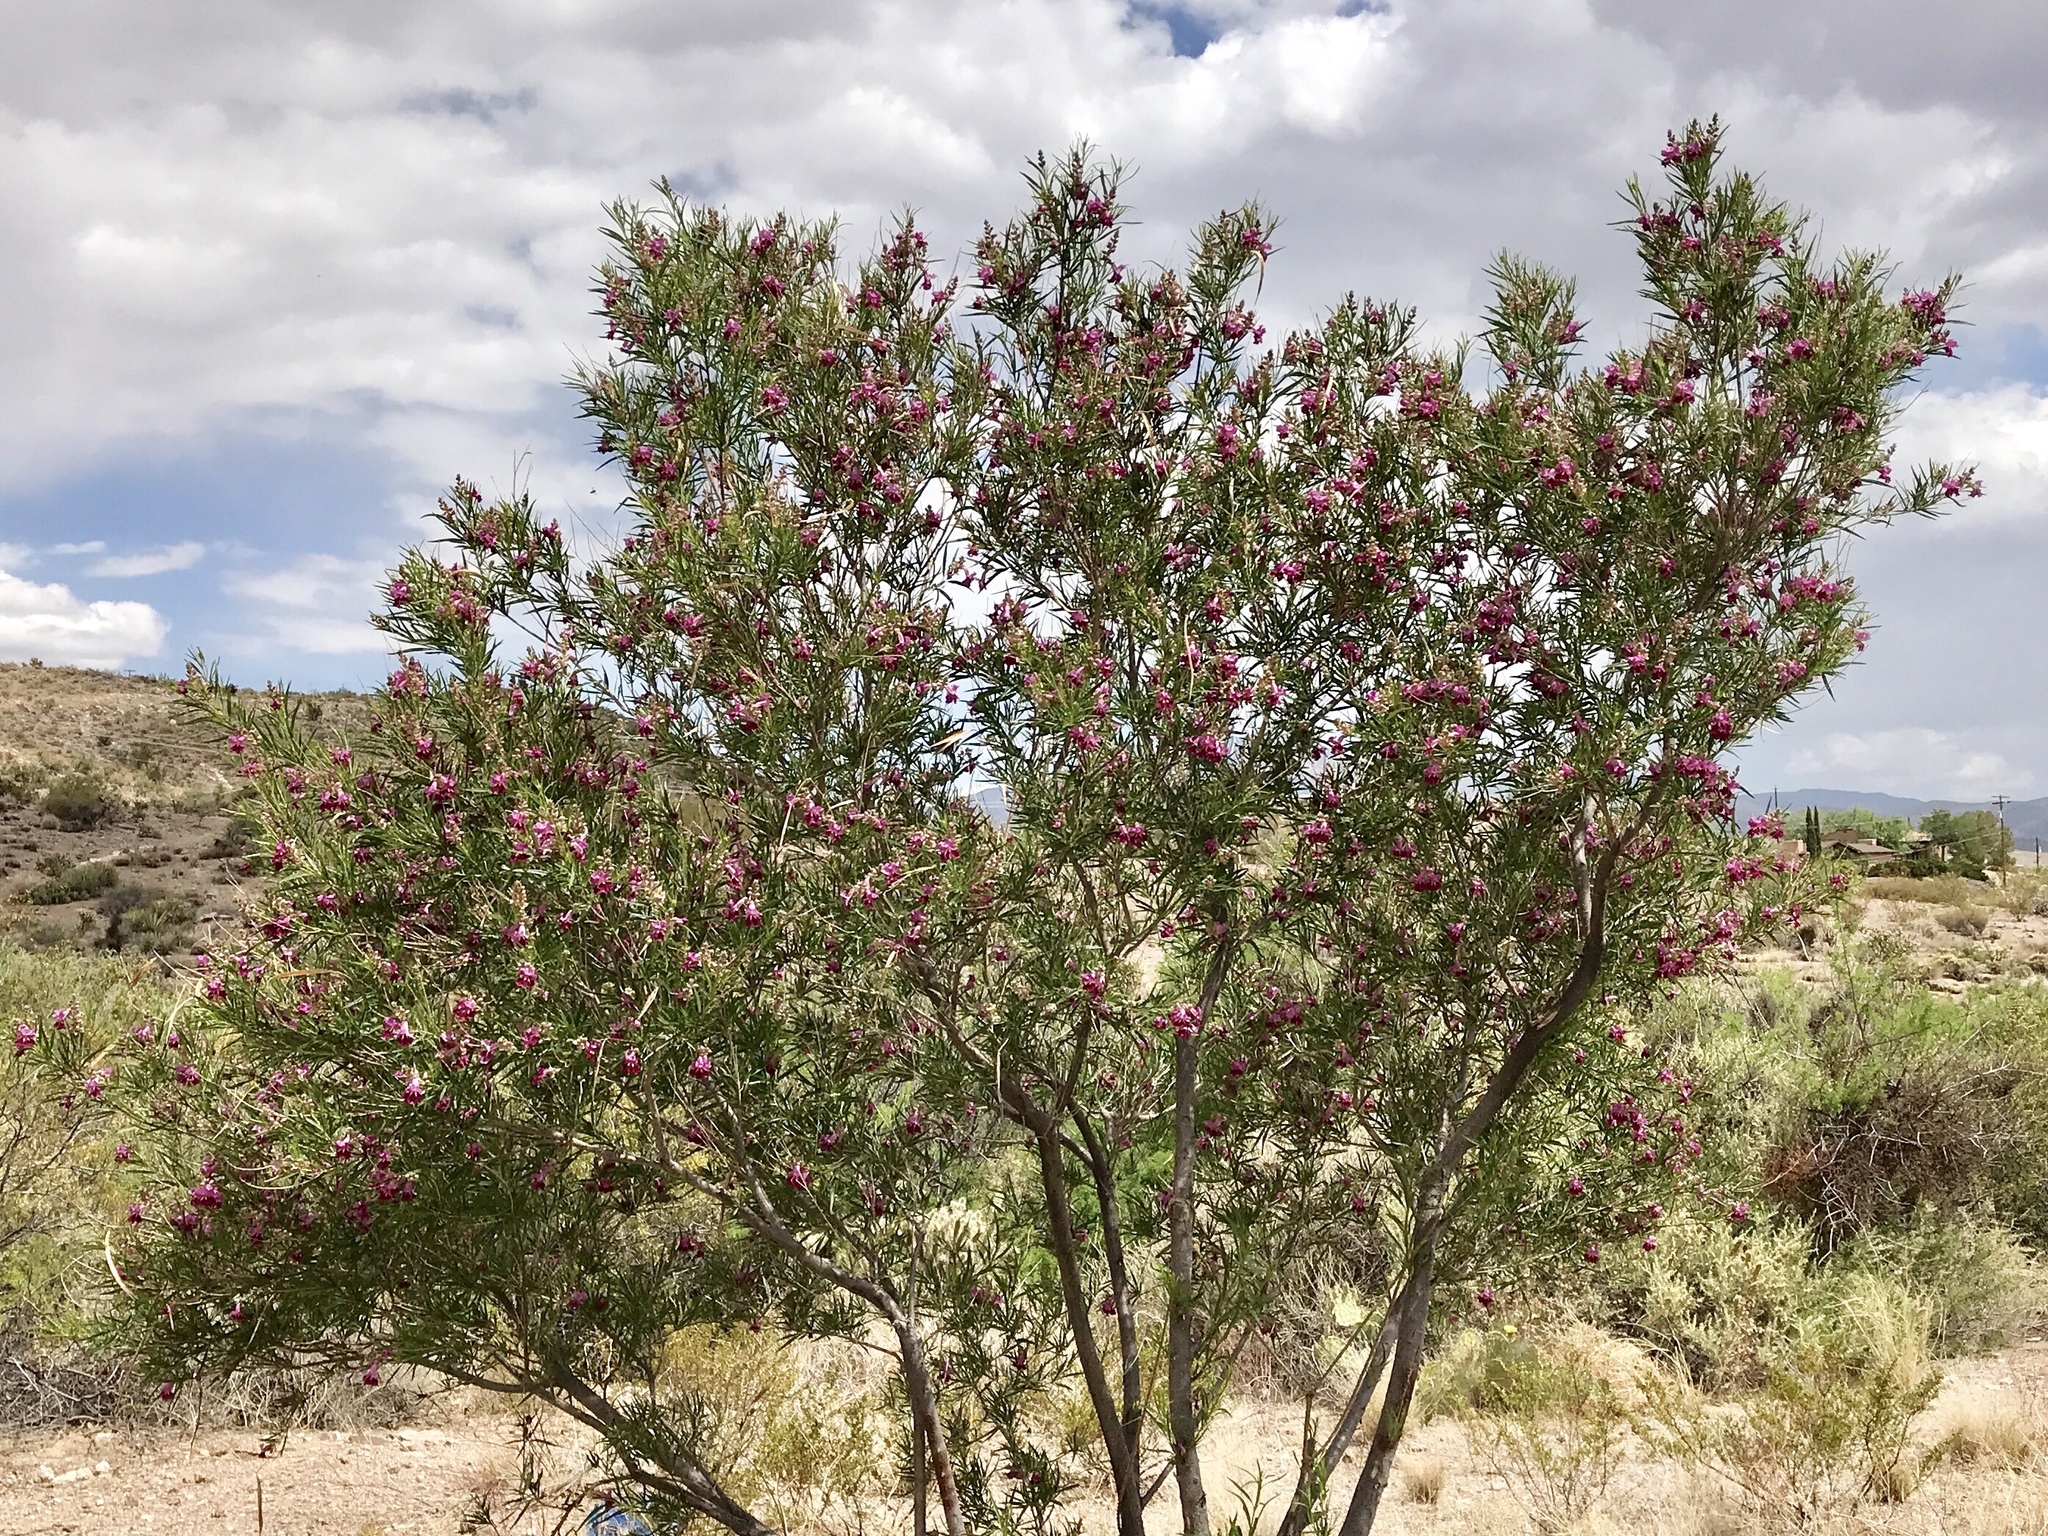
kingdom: Plantae
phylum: Tracheophyta
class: Magnoliopsida
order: Lamiales
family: Bignoniaceae
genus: Chilopsis
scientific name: Chilopsis linearis
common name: Desert-willow
